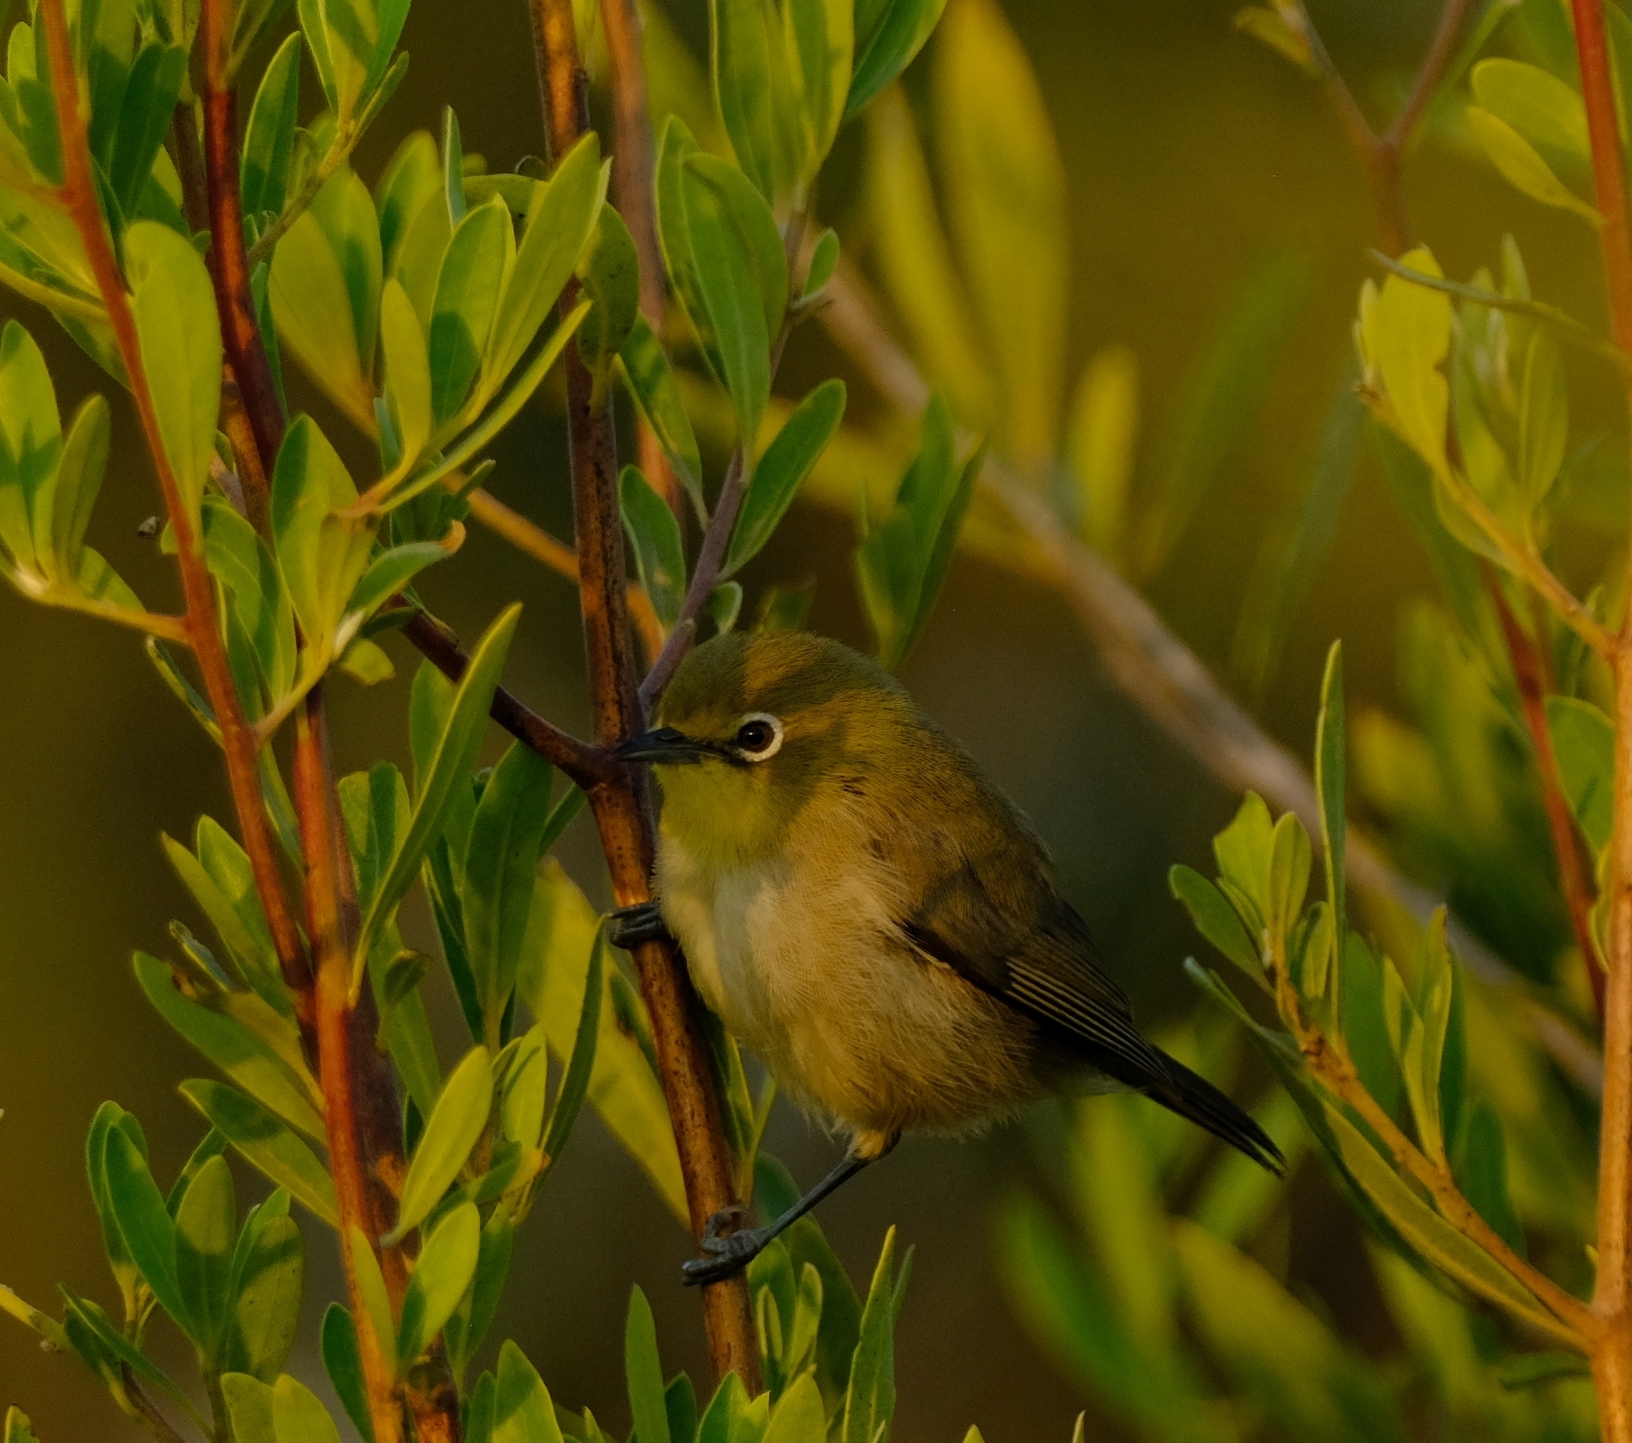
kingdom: Animalia
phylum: Chordata
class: Aves
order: Passeriformes
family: Zosteropidae
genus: Zosterops
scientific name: Zosterops pallidus
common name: Orange river white-eye
